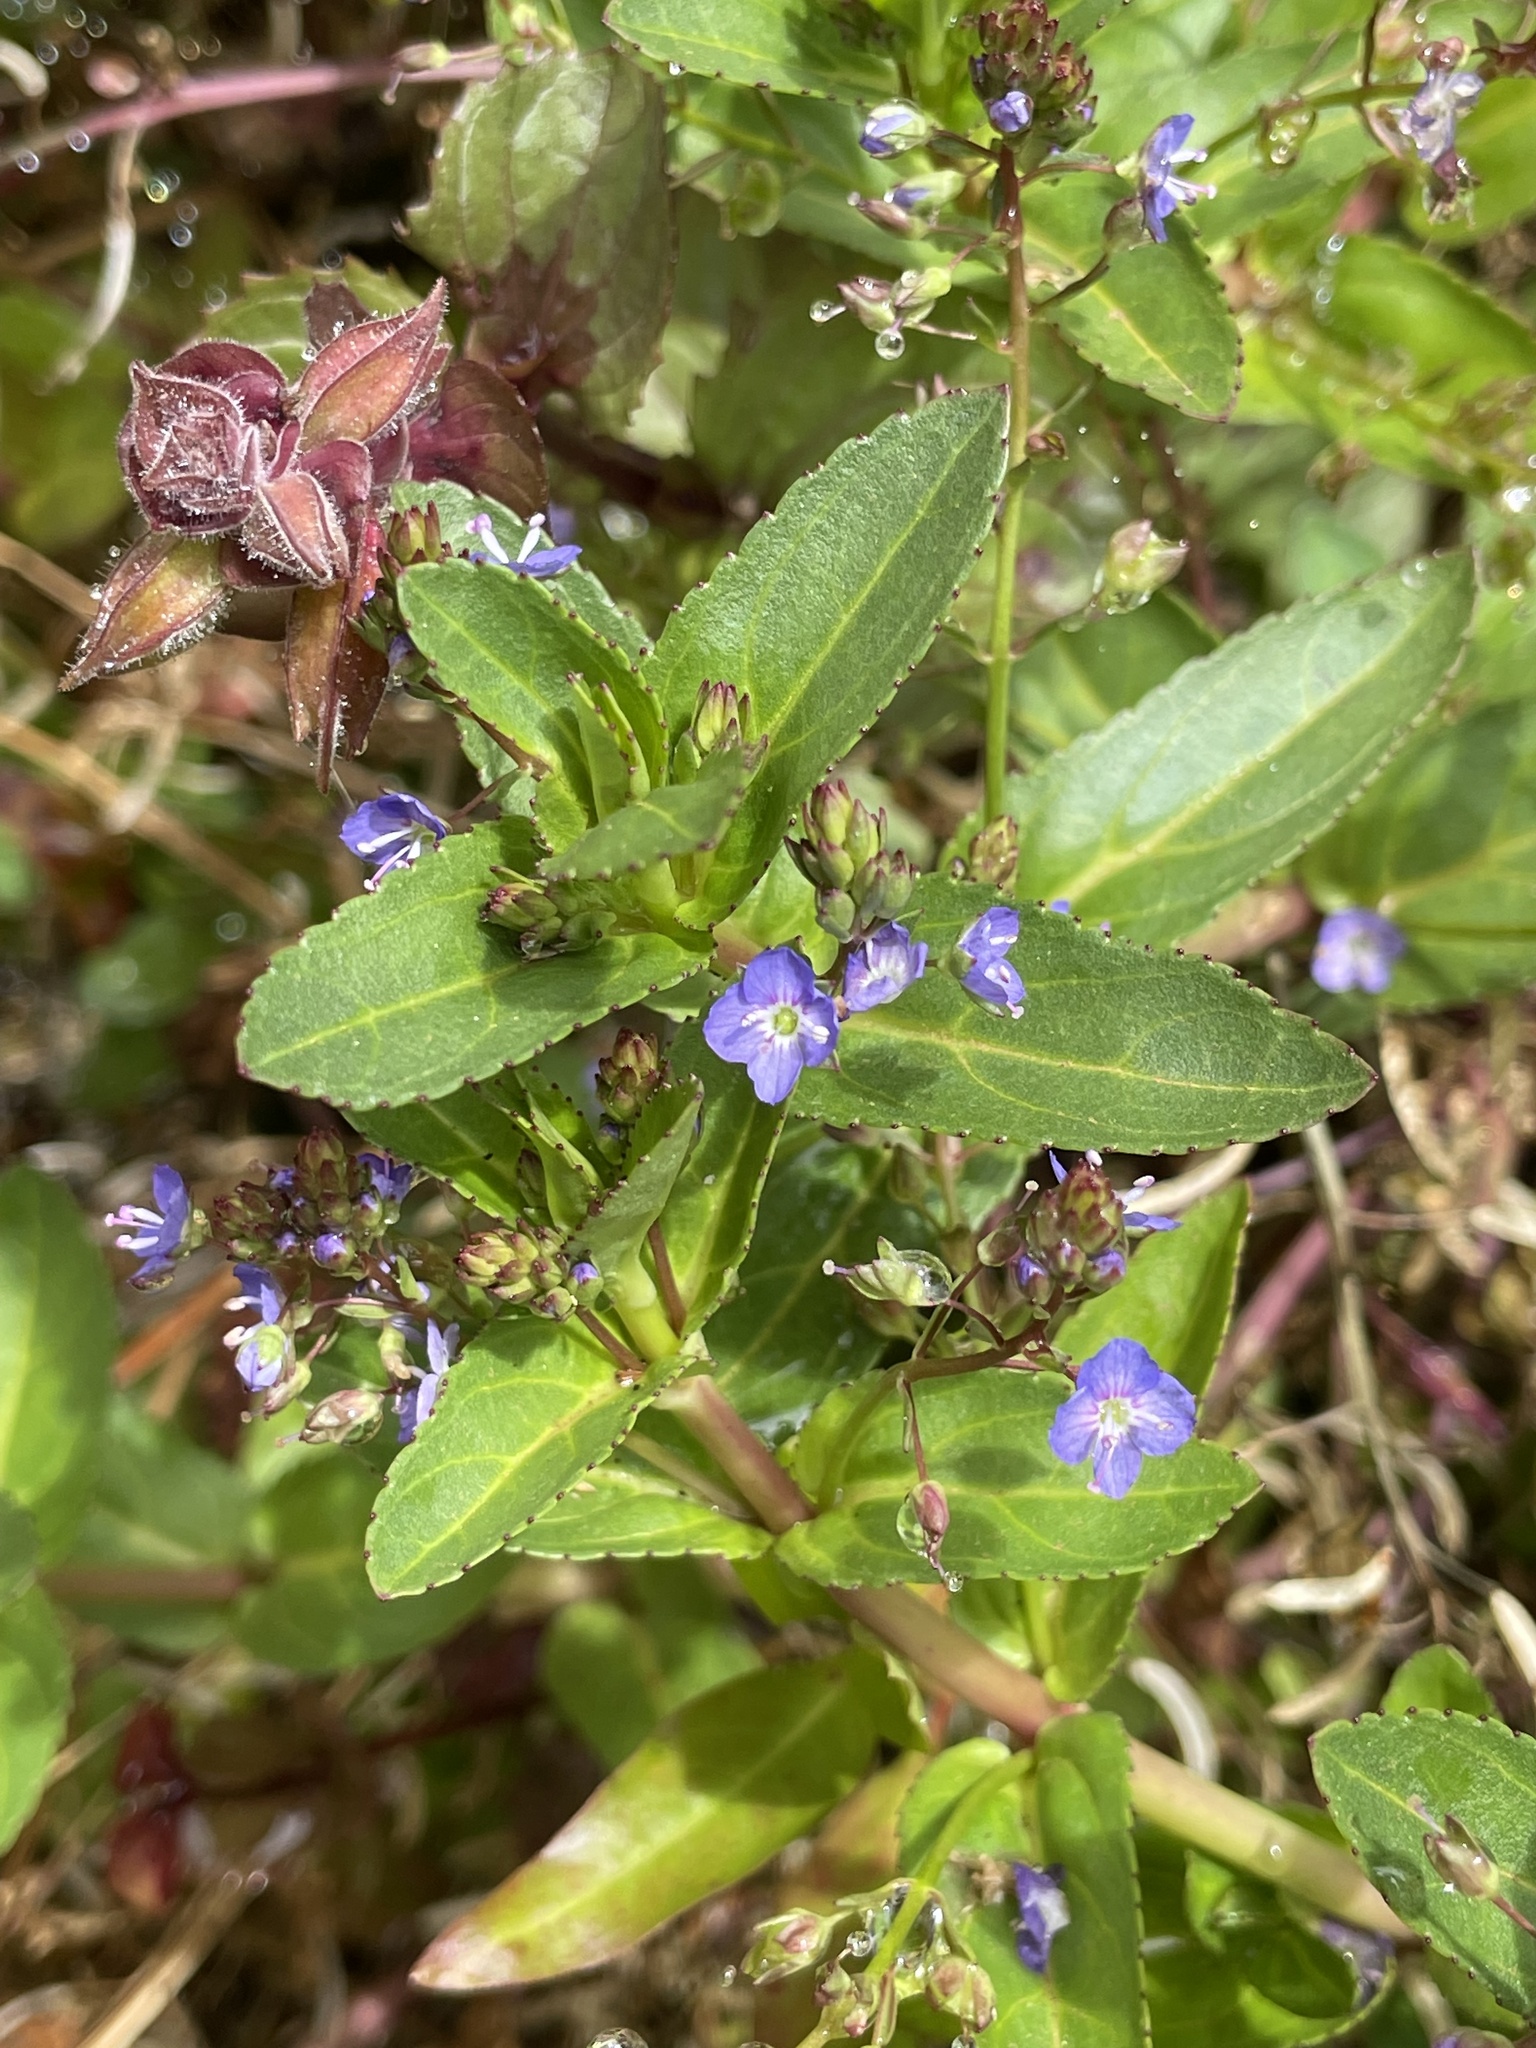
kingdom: Plantae
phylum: Tracheophyta
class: Magnoliopsida
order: Lamiales
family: Plantaginaceae
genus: Veronica
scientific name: Veronica americana
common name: American brooklime
